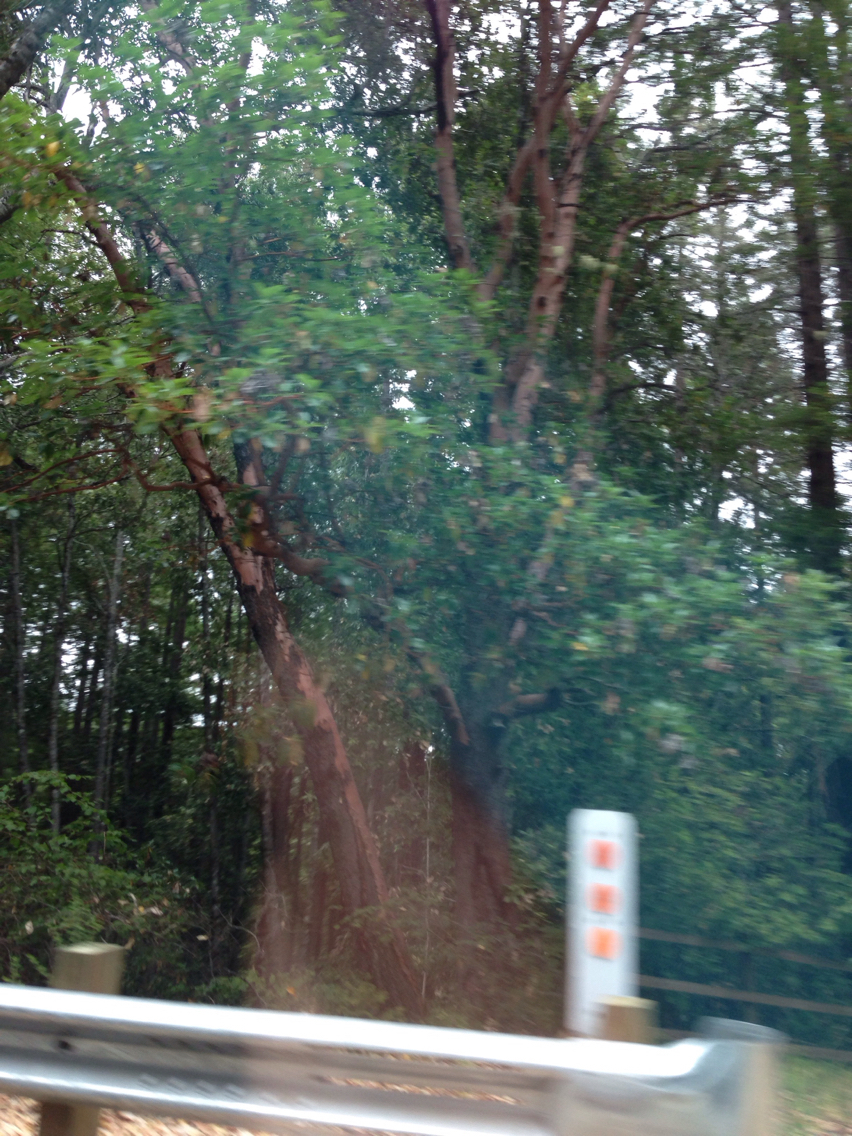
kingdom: Plantae
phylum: Tracheophyta
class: Magnoliopsida
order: Ericales
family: Ericaceae
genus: Arbutus
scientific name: Arbutus menziesii
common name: Pacific madrone
